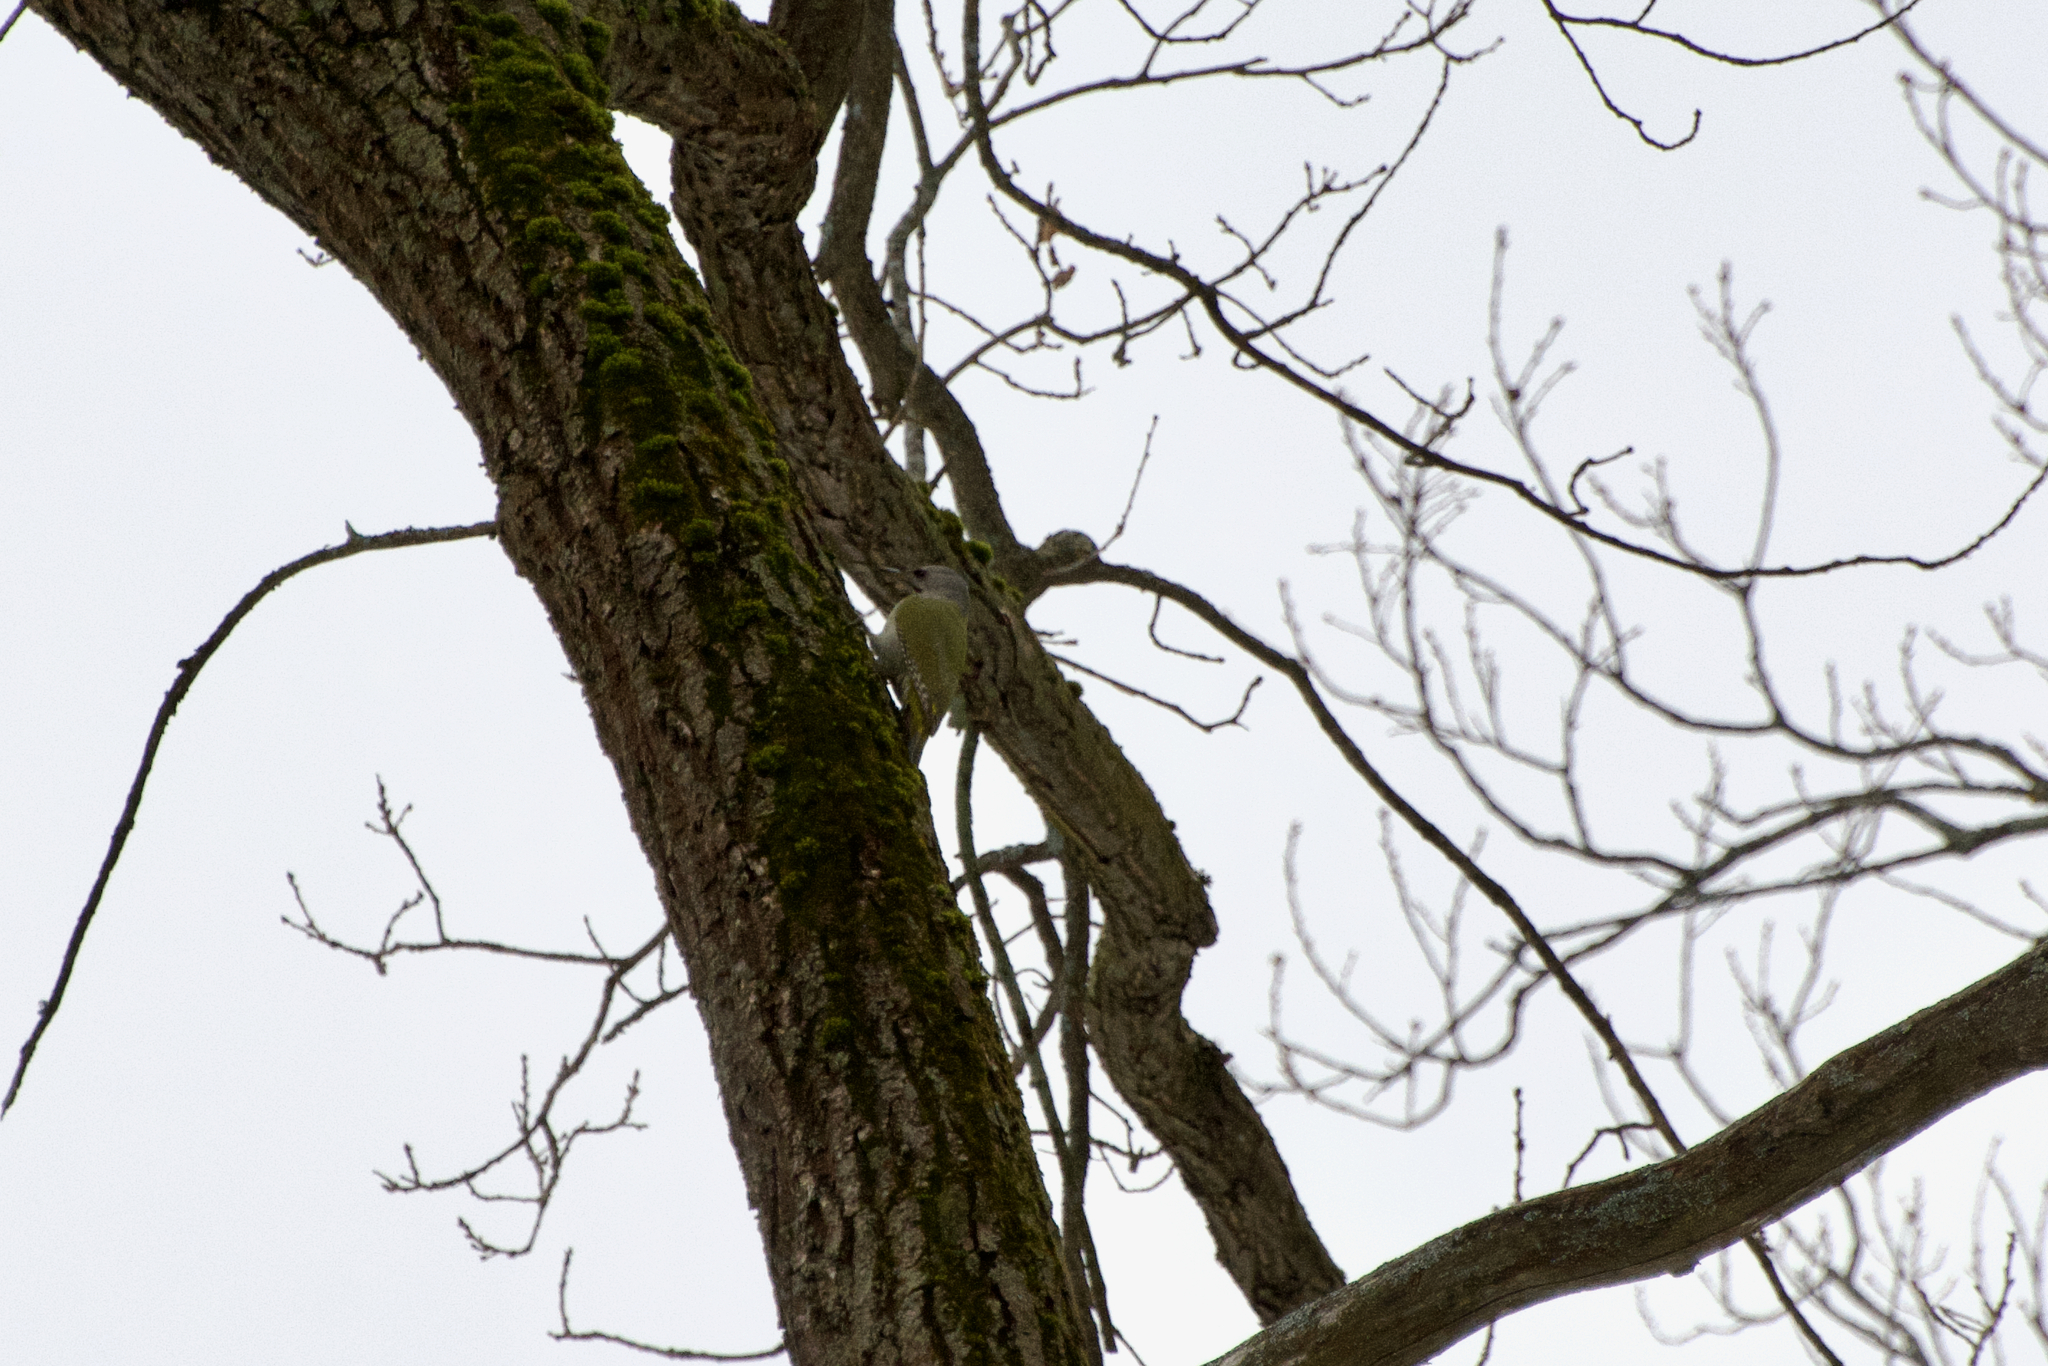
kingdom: Animalia
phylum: Chordata
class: Aves
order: Piciformes
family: Picidae
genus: Picus
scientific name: Picus canus
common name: Grey-headed woodpecker
